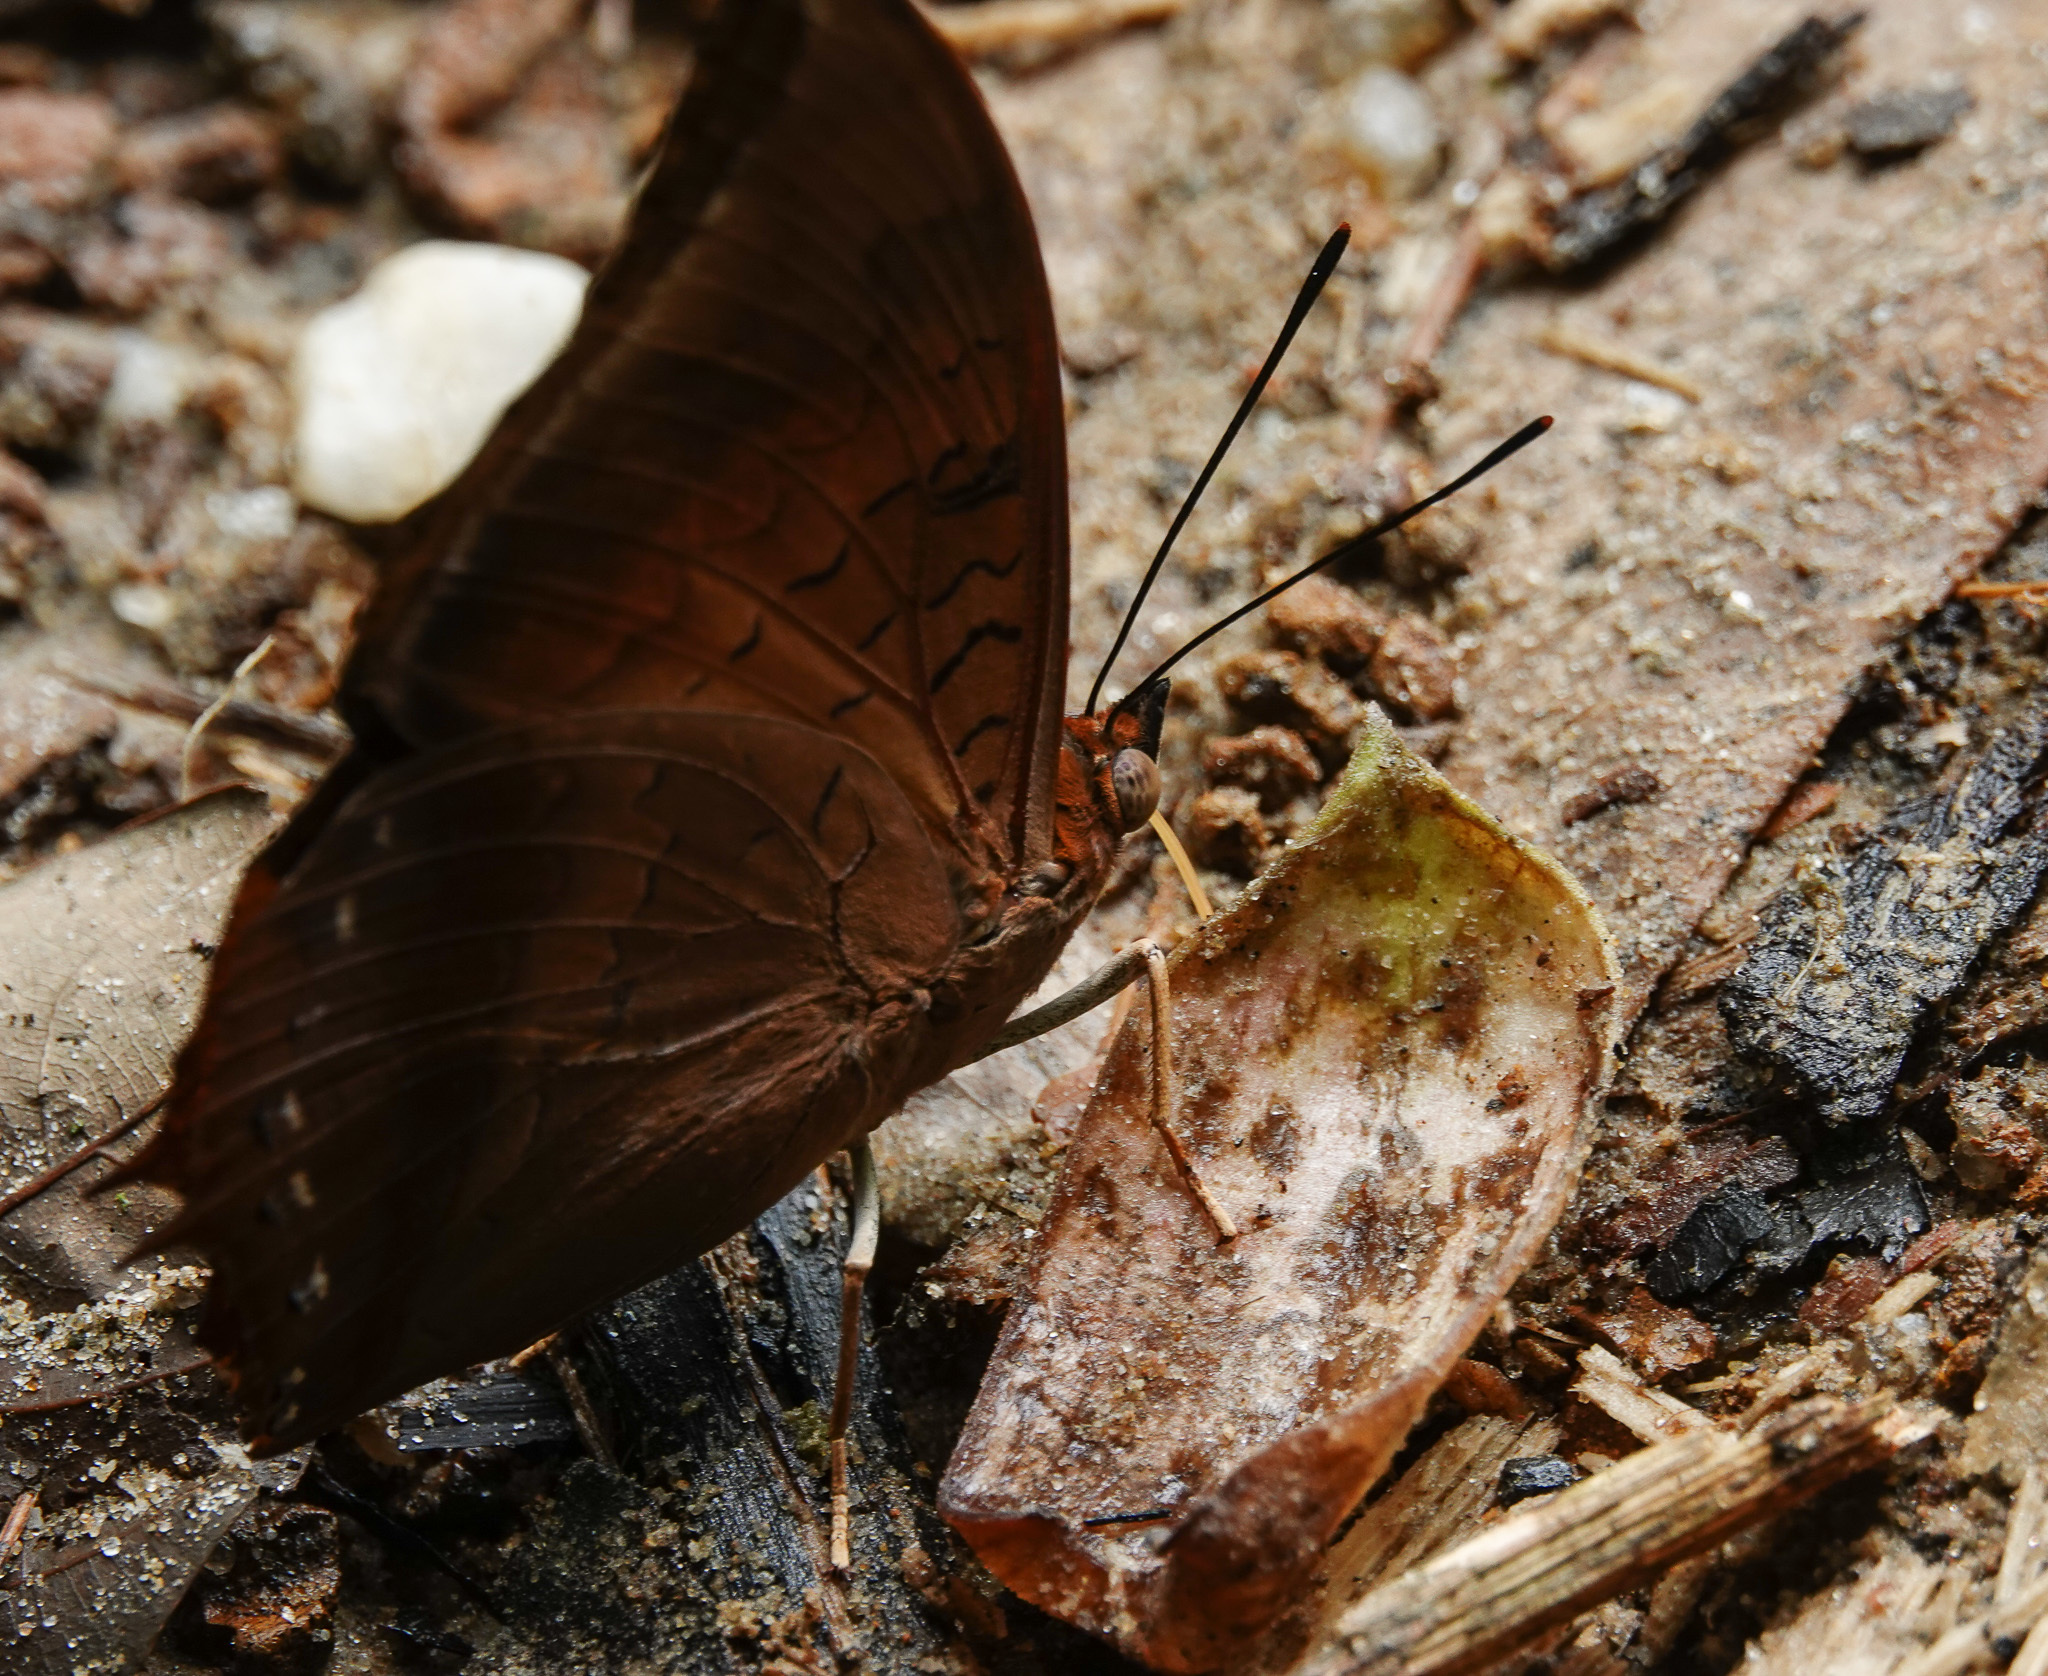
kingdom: Animalia
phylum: Arthropoda
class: Insecta
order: Lepidoptera
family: Nymphalidae
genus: Charaxes
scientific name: Charaxes bernardus
